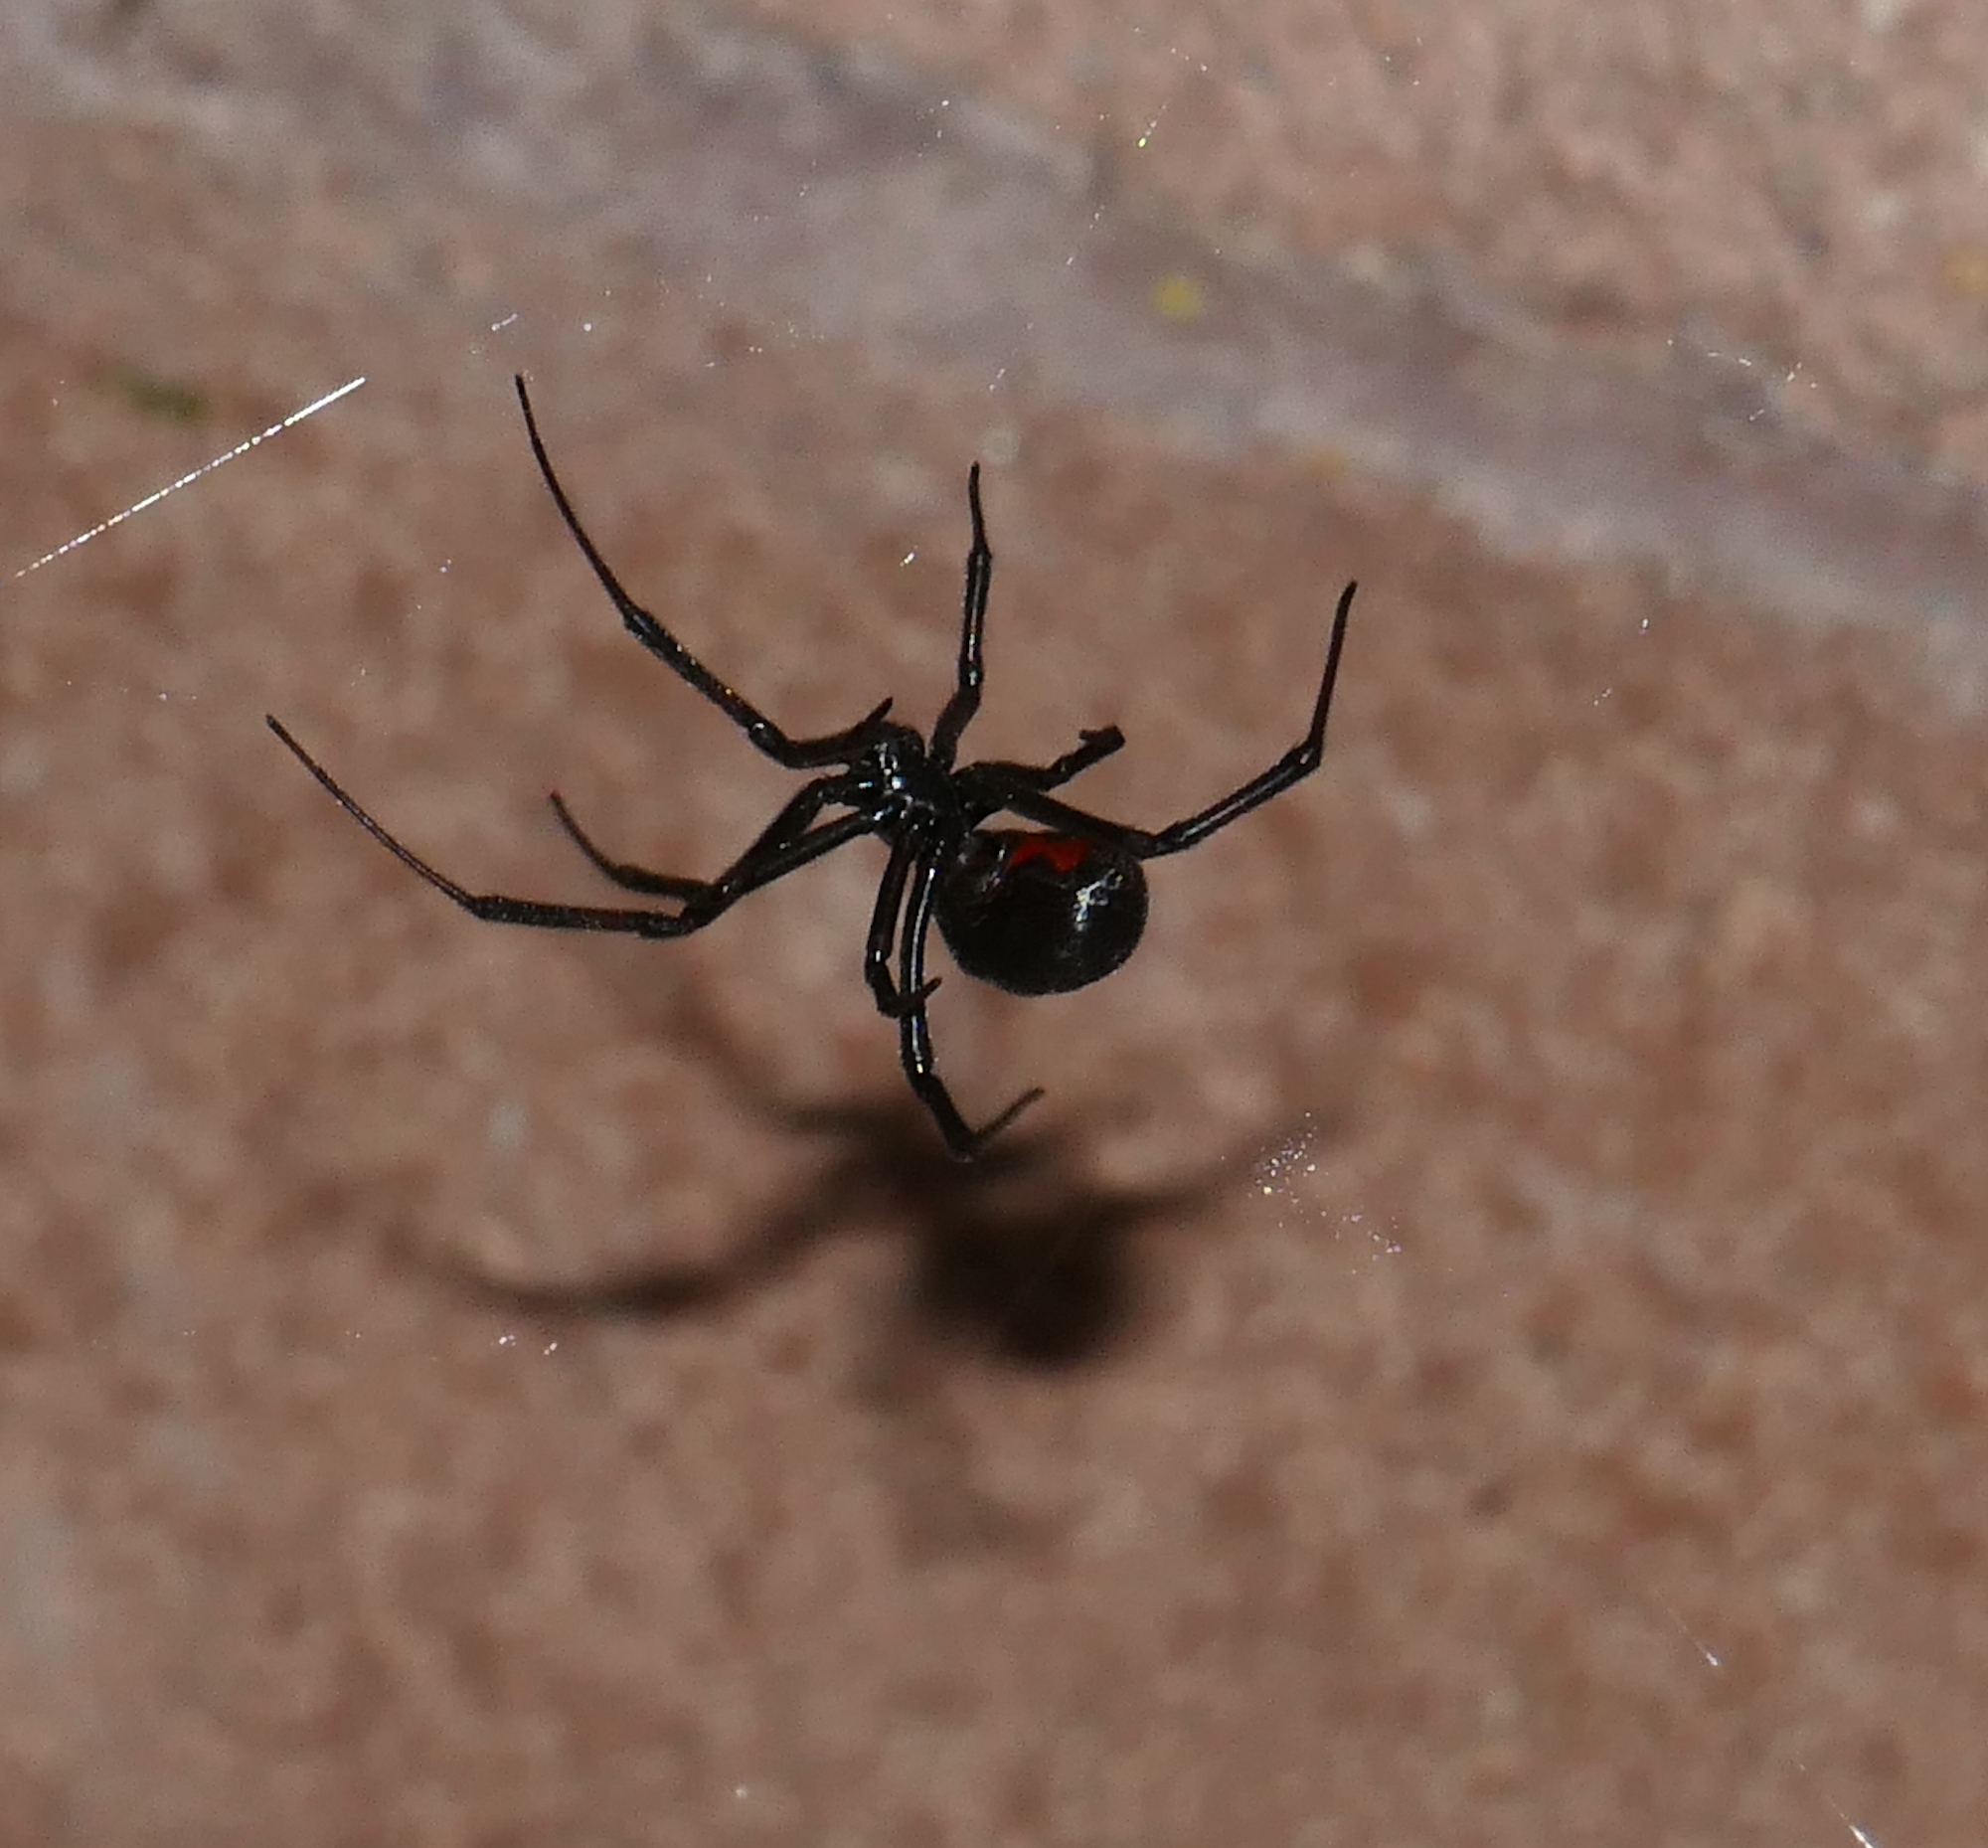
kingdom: Animalia
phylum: Arthropoda
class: Arachnida
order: Araneae
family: Theridiidae
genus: Latrodectus
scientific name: Latrodectus hesperus
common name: Western black widow
